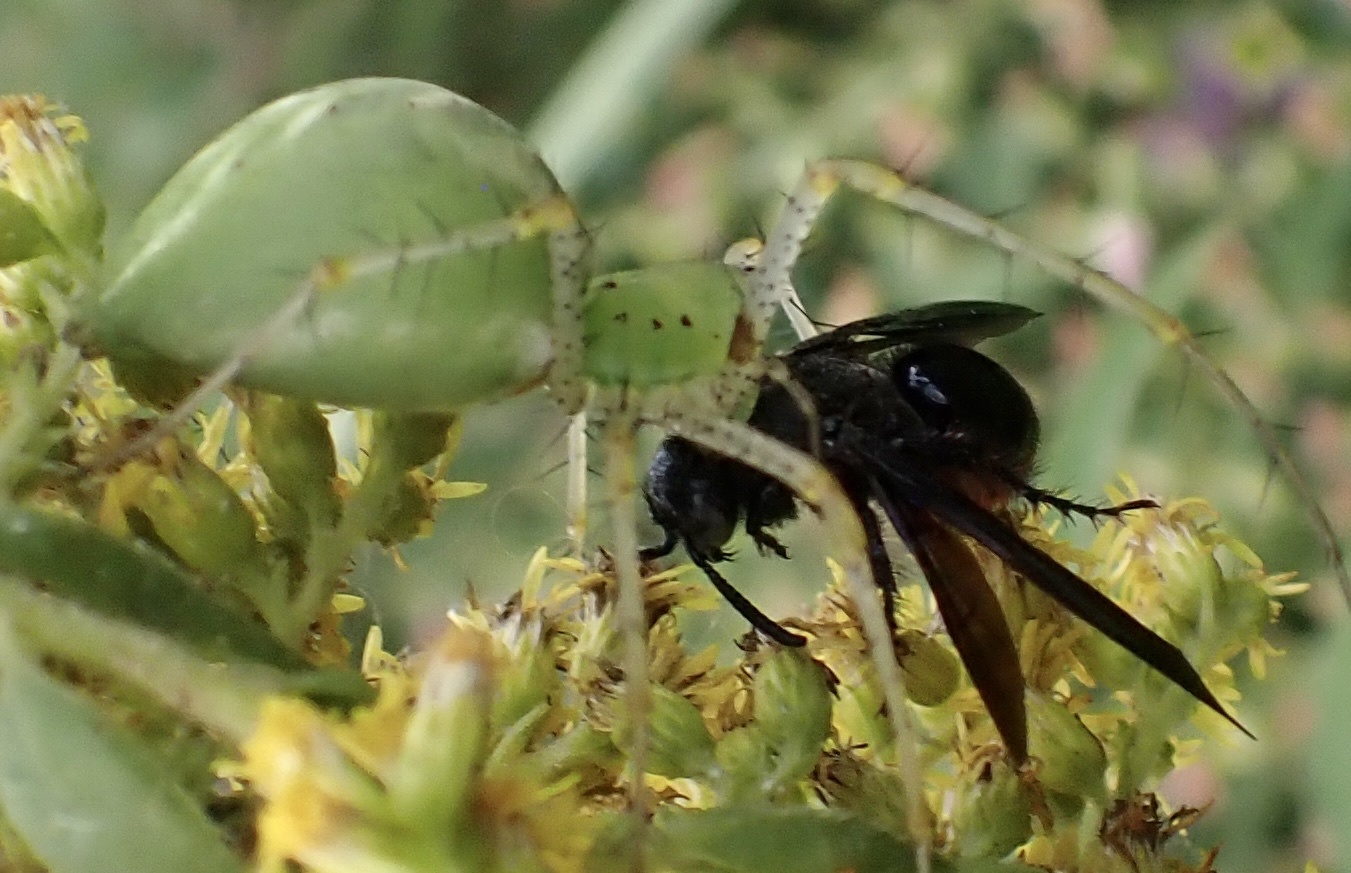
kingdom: Animalia
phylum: Arthropoda
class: Arachnida
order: Araneae
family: Oxyopidae
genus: Peucetia
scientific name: Peucetia viridans
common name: Lynx spiders
